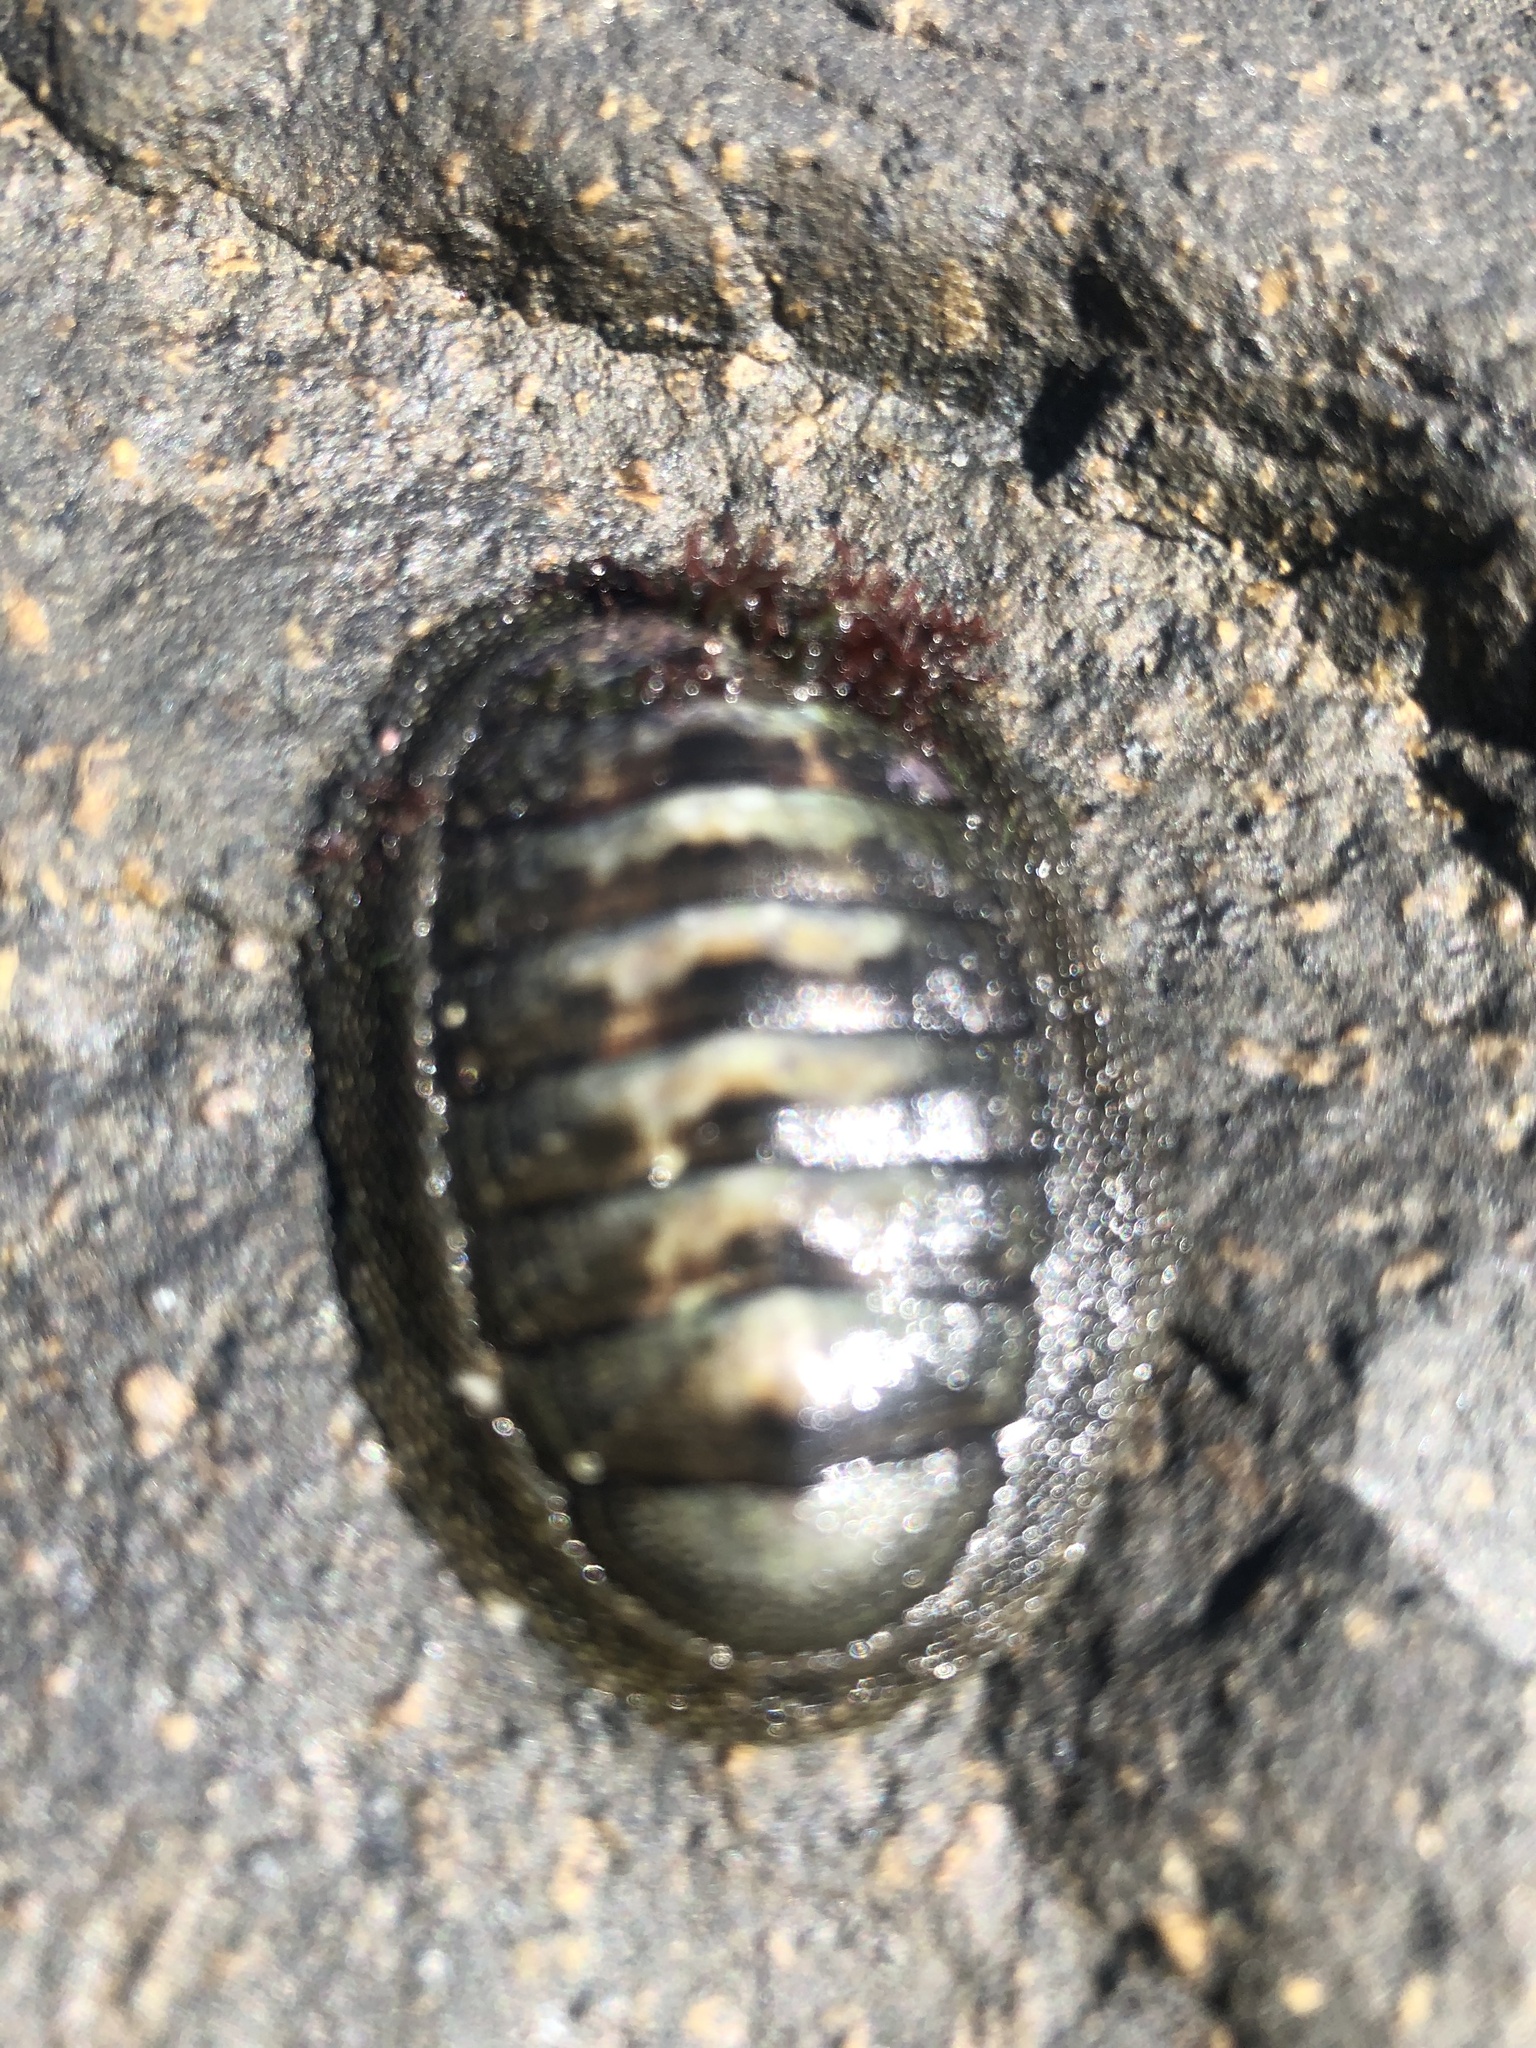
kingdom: Animalia
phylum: Mollusca
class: Polyplacophora
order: Chitonida
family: Chitonidae
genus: Chiton
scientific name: Chiton granosus
